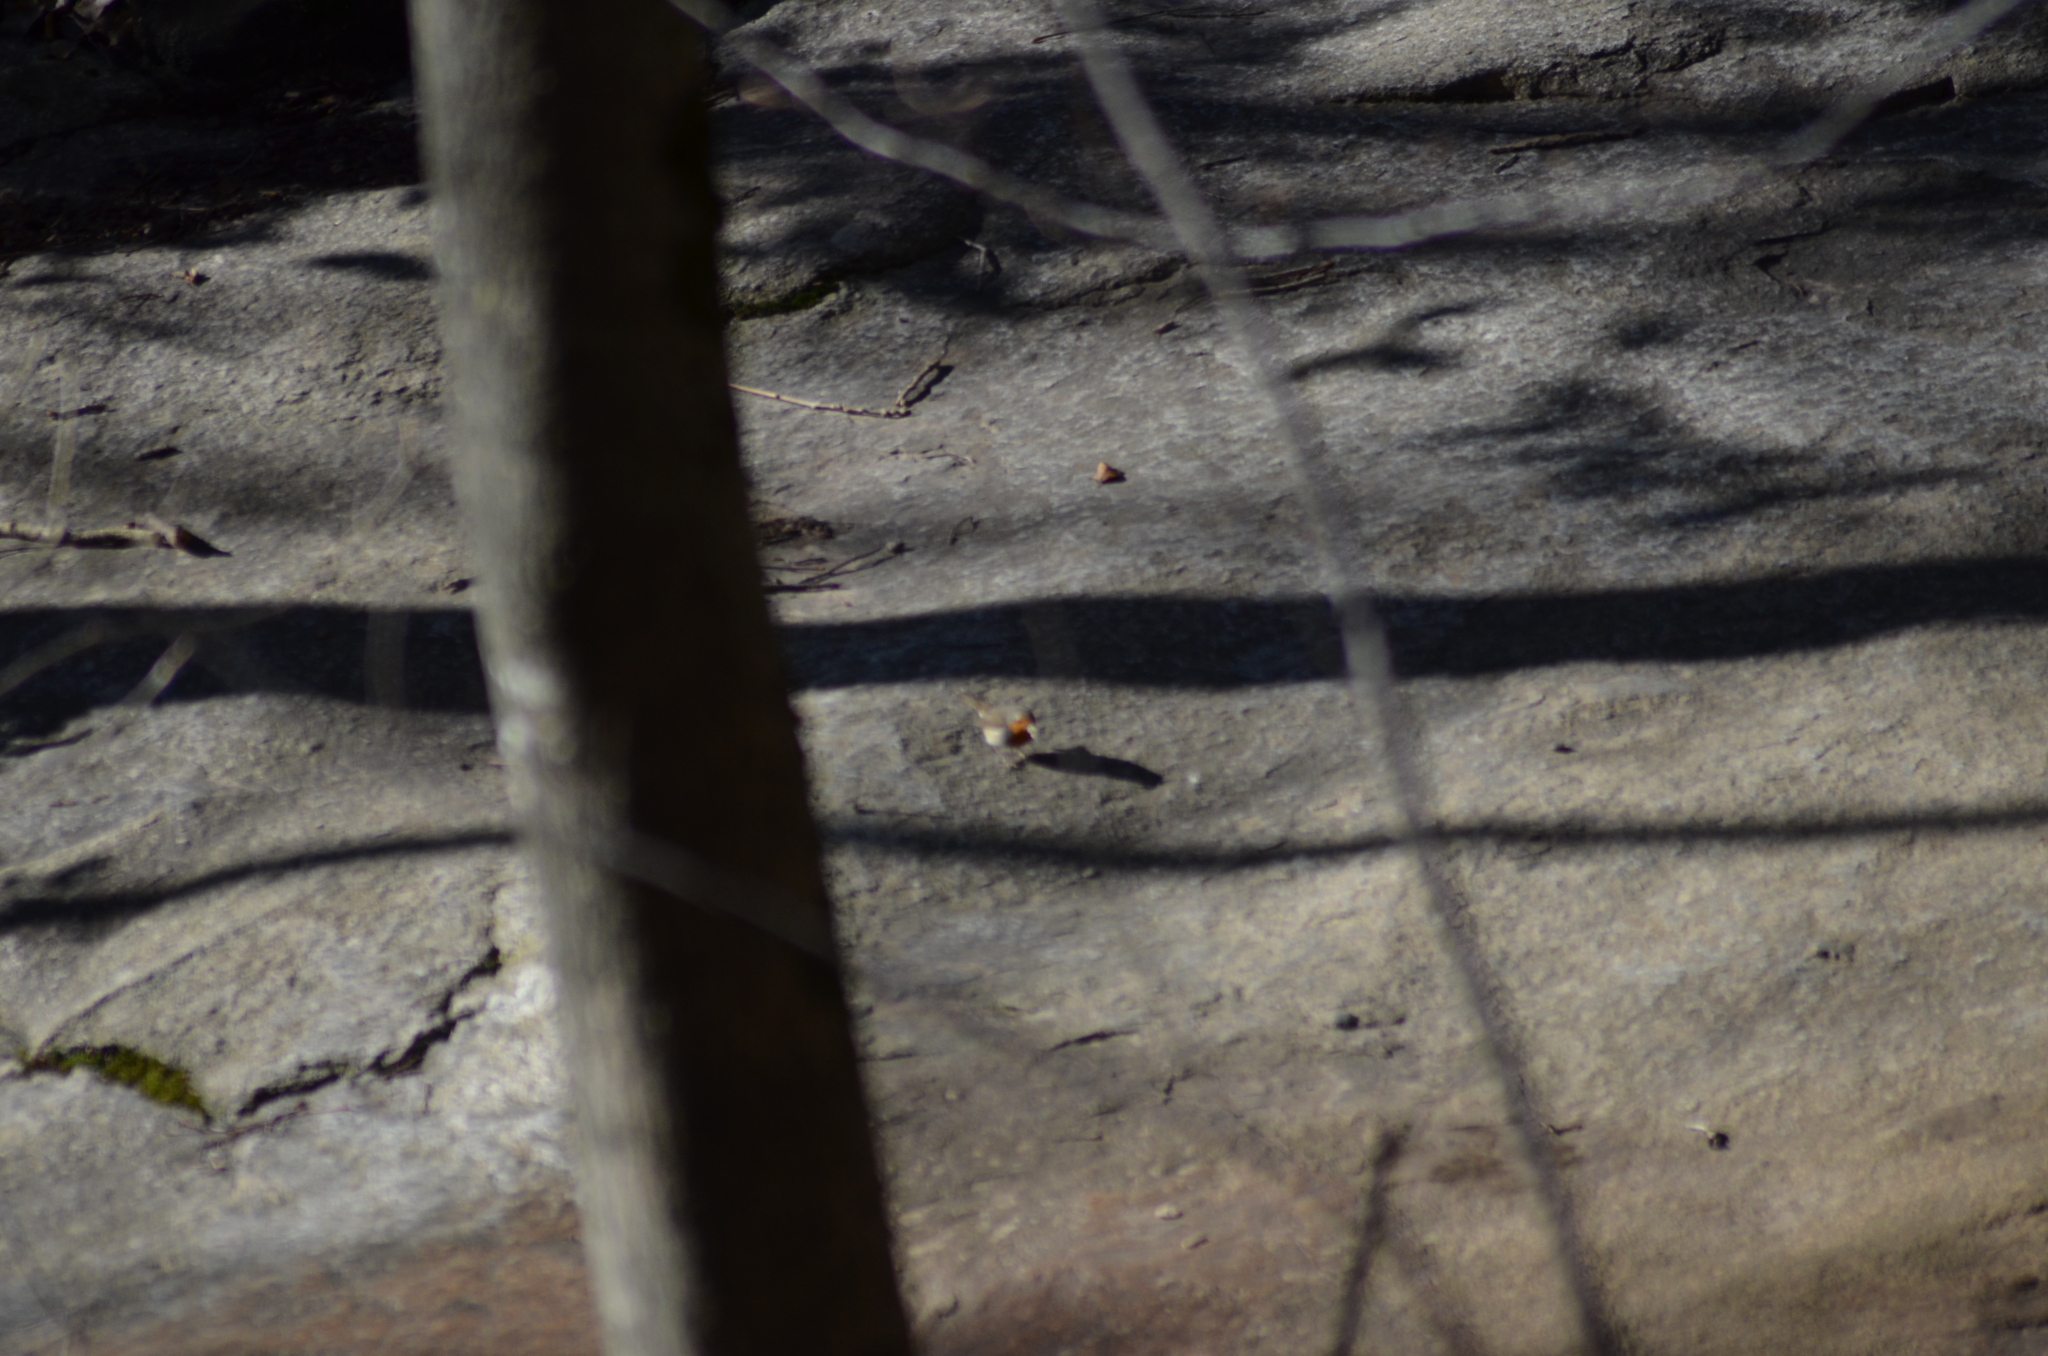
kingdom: Animalia
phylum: Chordata
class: Aves
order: Passeriformes
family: Muscicapidae
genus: Erithacus
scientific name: Erithacus rubecula
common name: European robin
